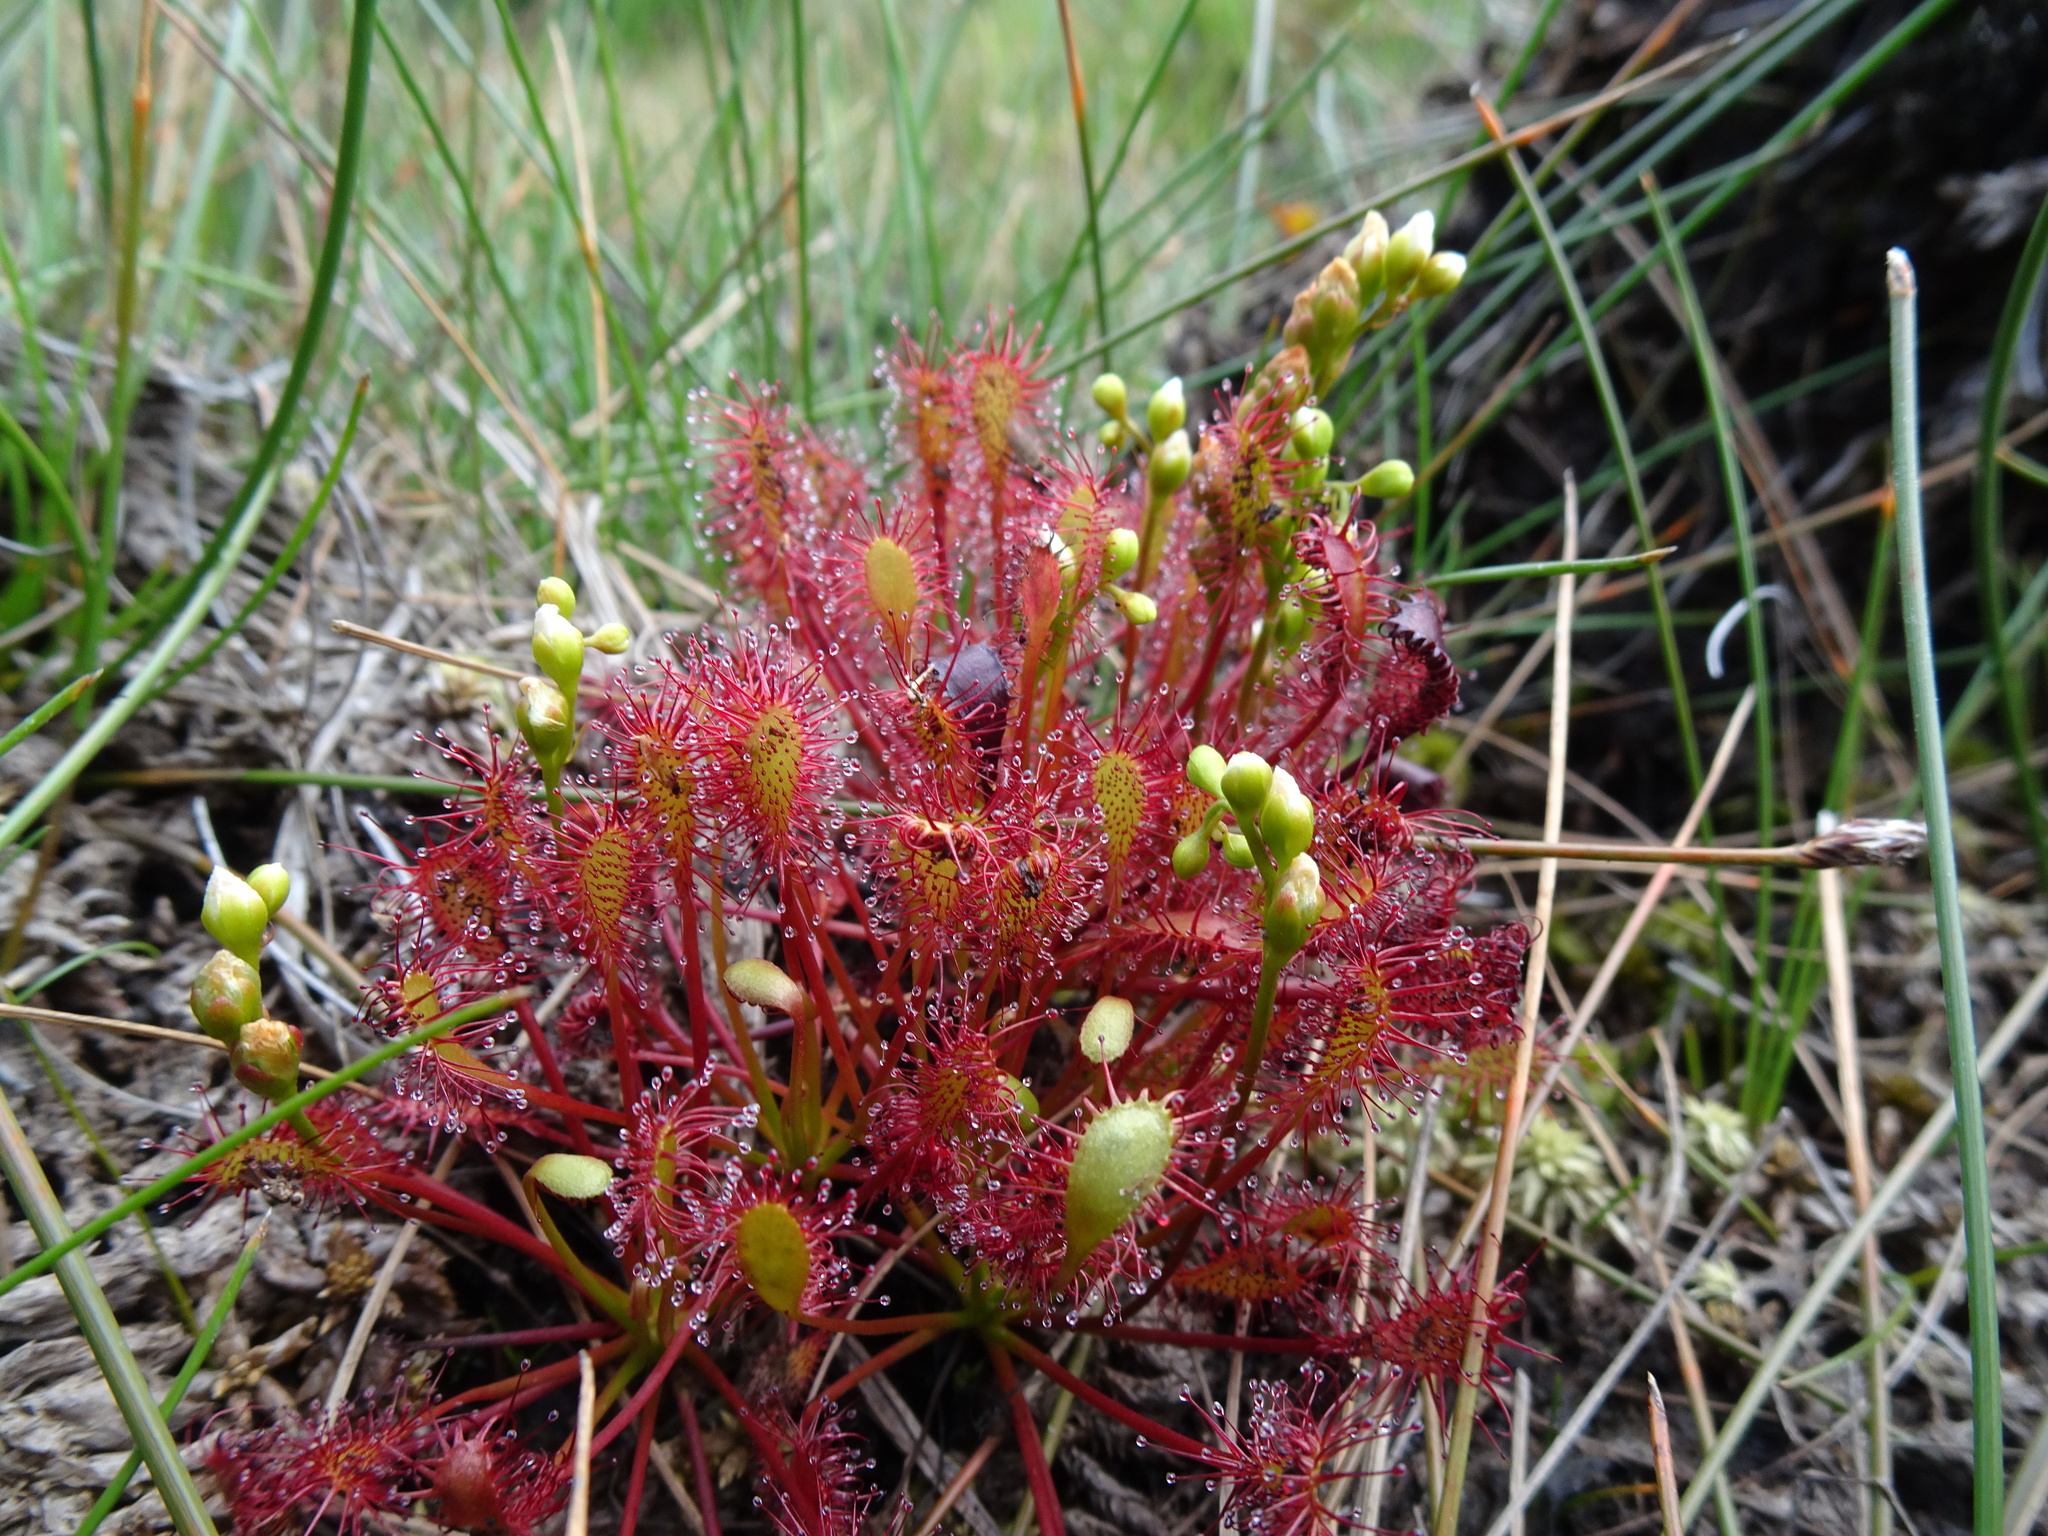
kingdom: Plantae
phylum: Tracheophyta
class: Magnoliopsida
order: Caryophyllales
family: Droseraceae
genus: Drosera
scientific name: Drosera intermedia
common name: Oblong-leaved sundew
